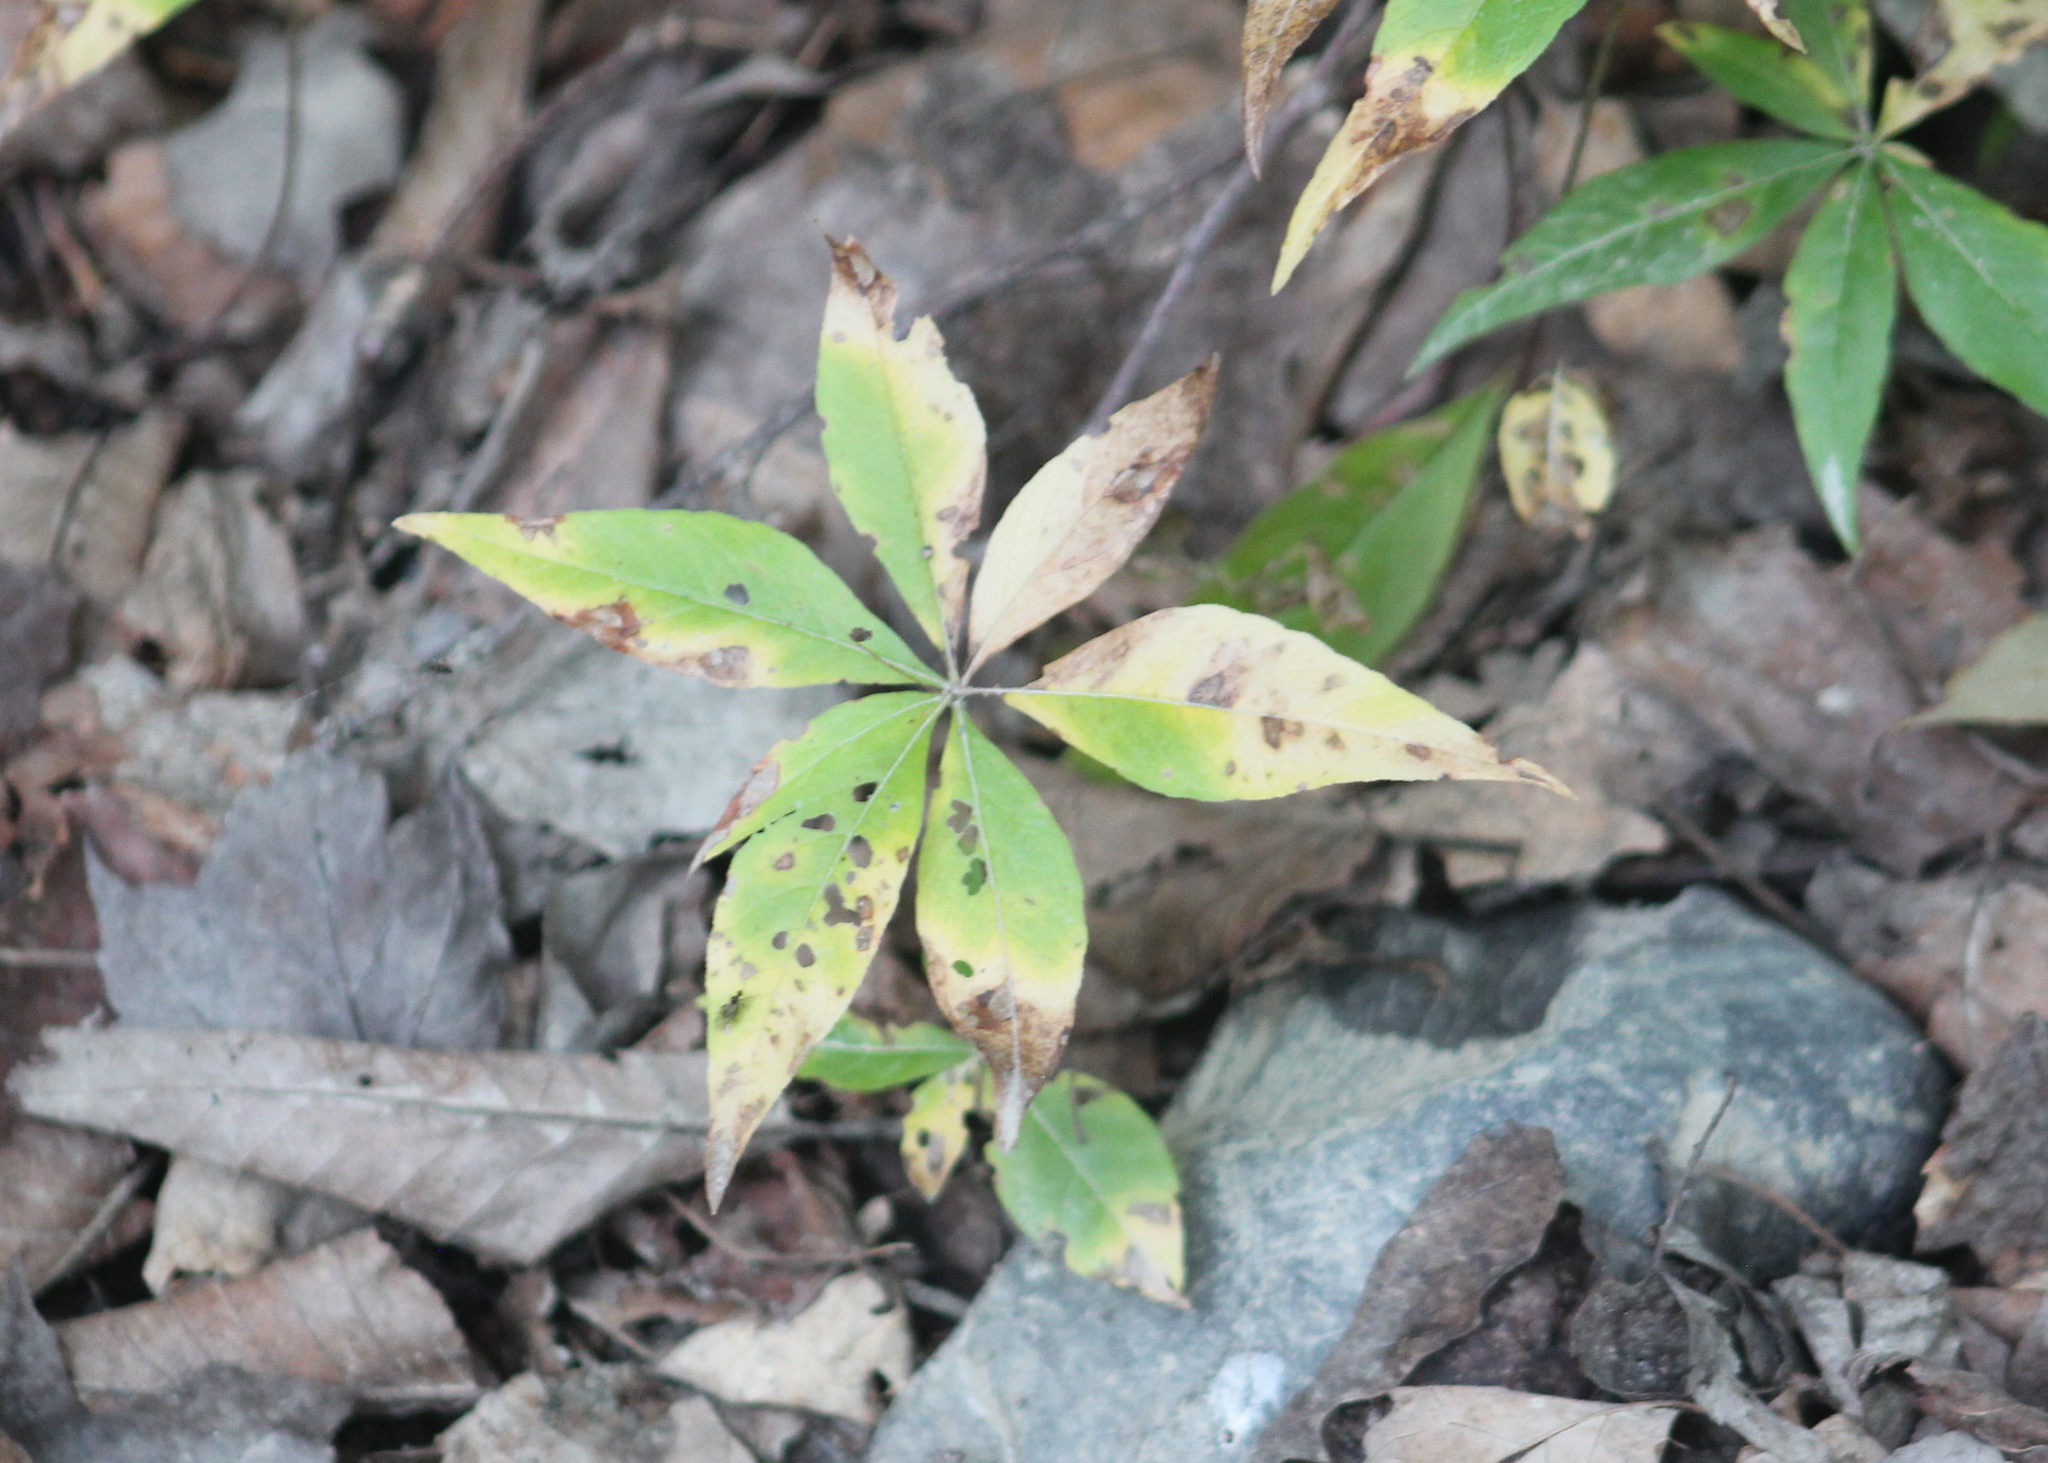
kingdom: Plantae
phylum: Tracheophyta
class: Magnoliopsida
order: Ericales
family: Primulaceae
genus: Lysimachia
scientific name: Lysimachia borealis
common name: American starflower
